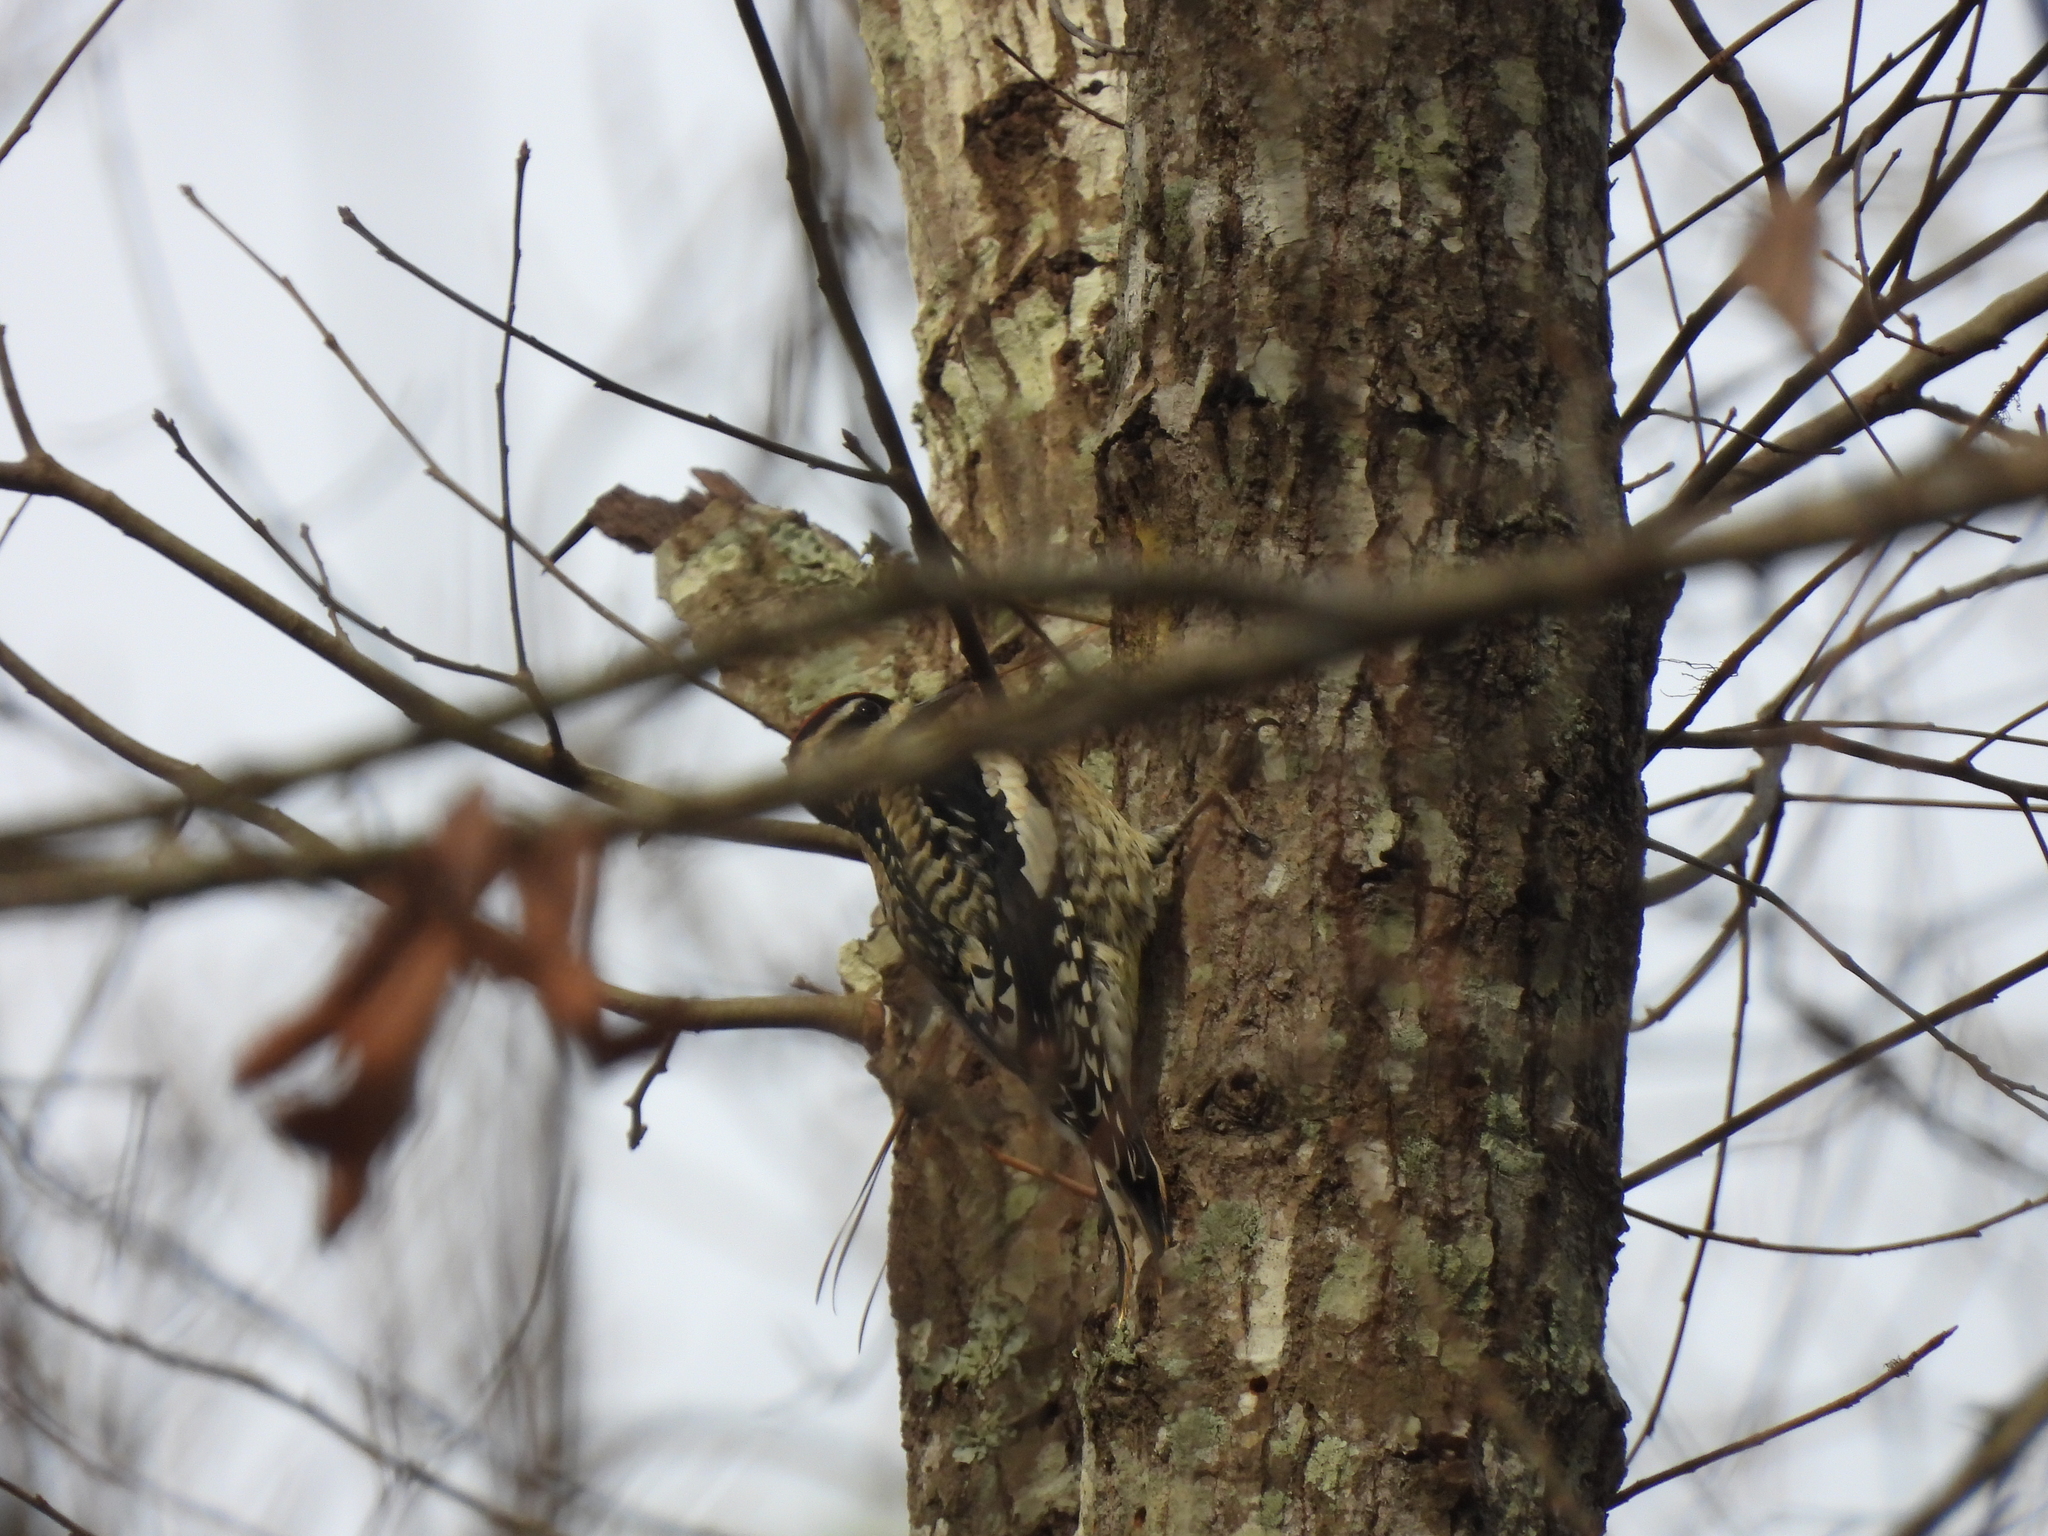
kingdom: Animalia
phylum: Chordata
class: Aves
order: Piciformes
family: Picidae
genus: Sphyrapicus
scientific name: Sphyrapicus varius
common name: Yellow-bellied sapsucker
